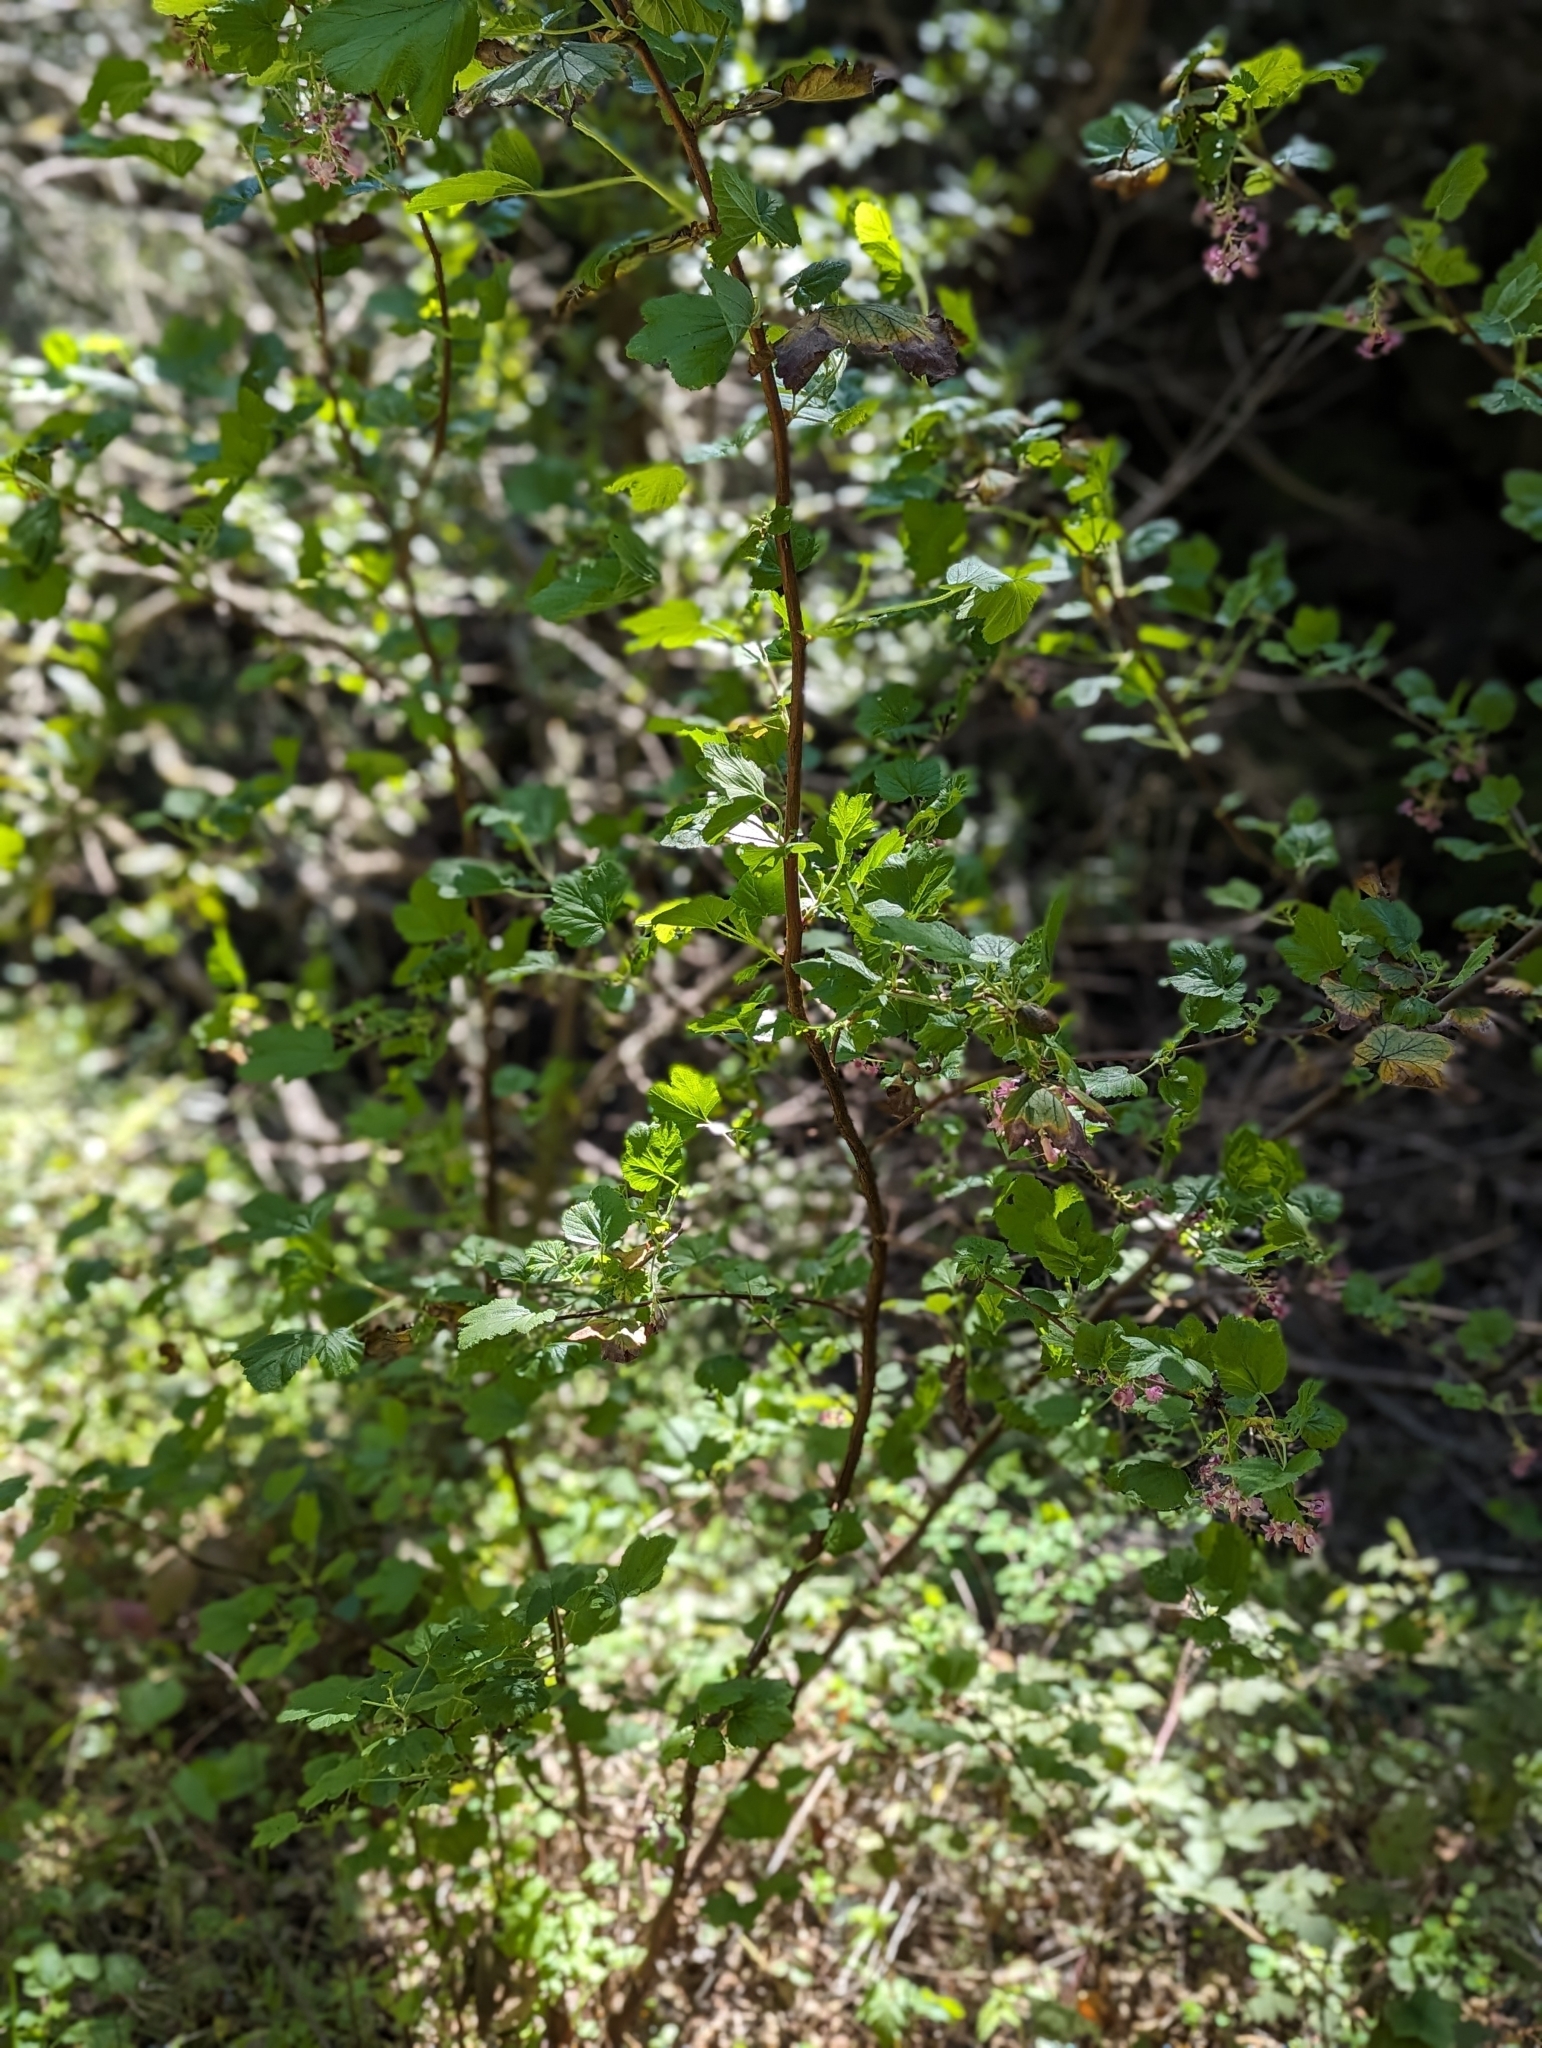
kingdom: Plantae
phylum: Tracheophyta
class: Magnoliopsida
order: Saxifragales
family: Grossulariaceae
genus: Ribes
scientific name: Ribes sanguineum
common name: Flowering currant
